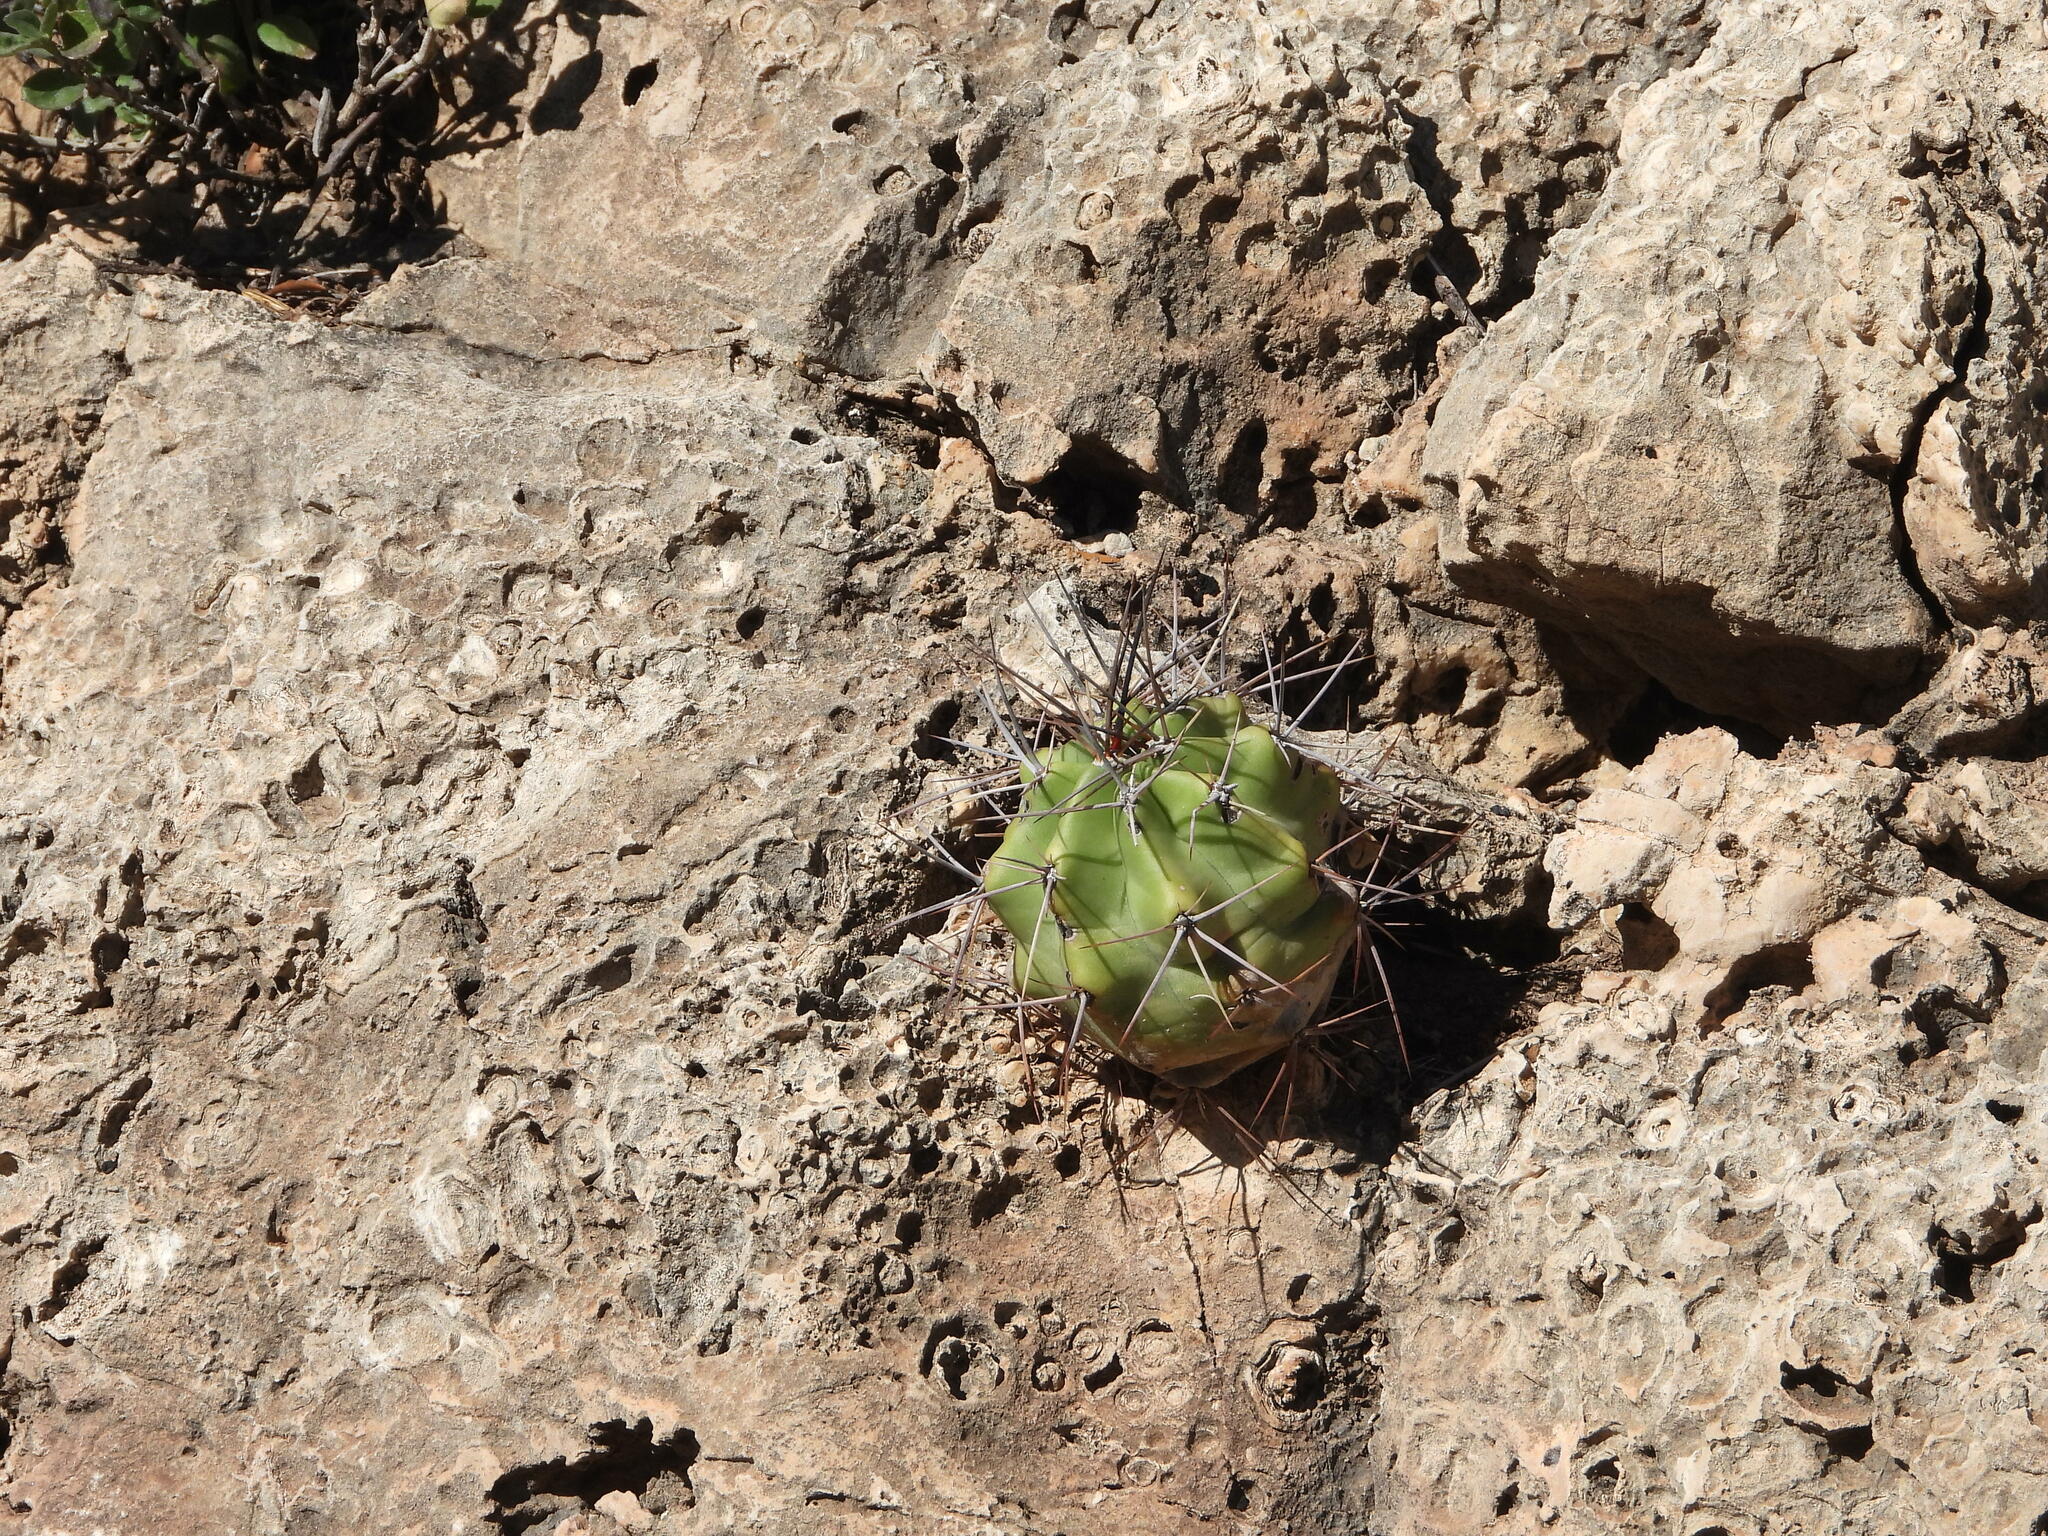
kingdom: Plantae
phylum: Tracheophyta
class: Magnoliopsida
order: Caryophyllales
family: Cactaceae
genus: Echinocereus
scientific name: Echinocereus coccineus
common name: Scarlet hedgehog cactus
